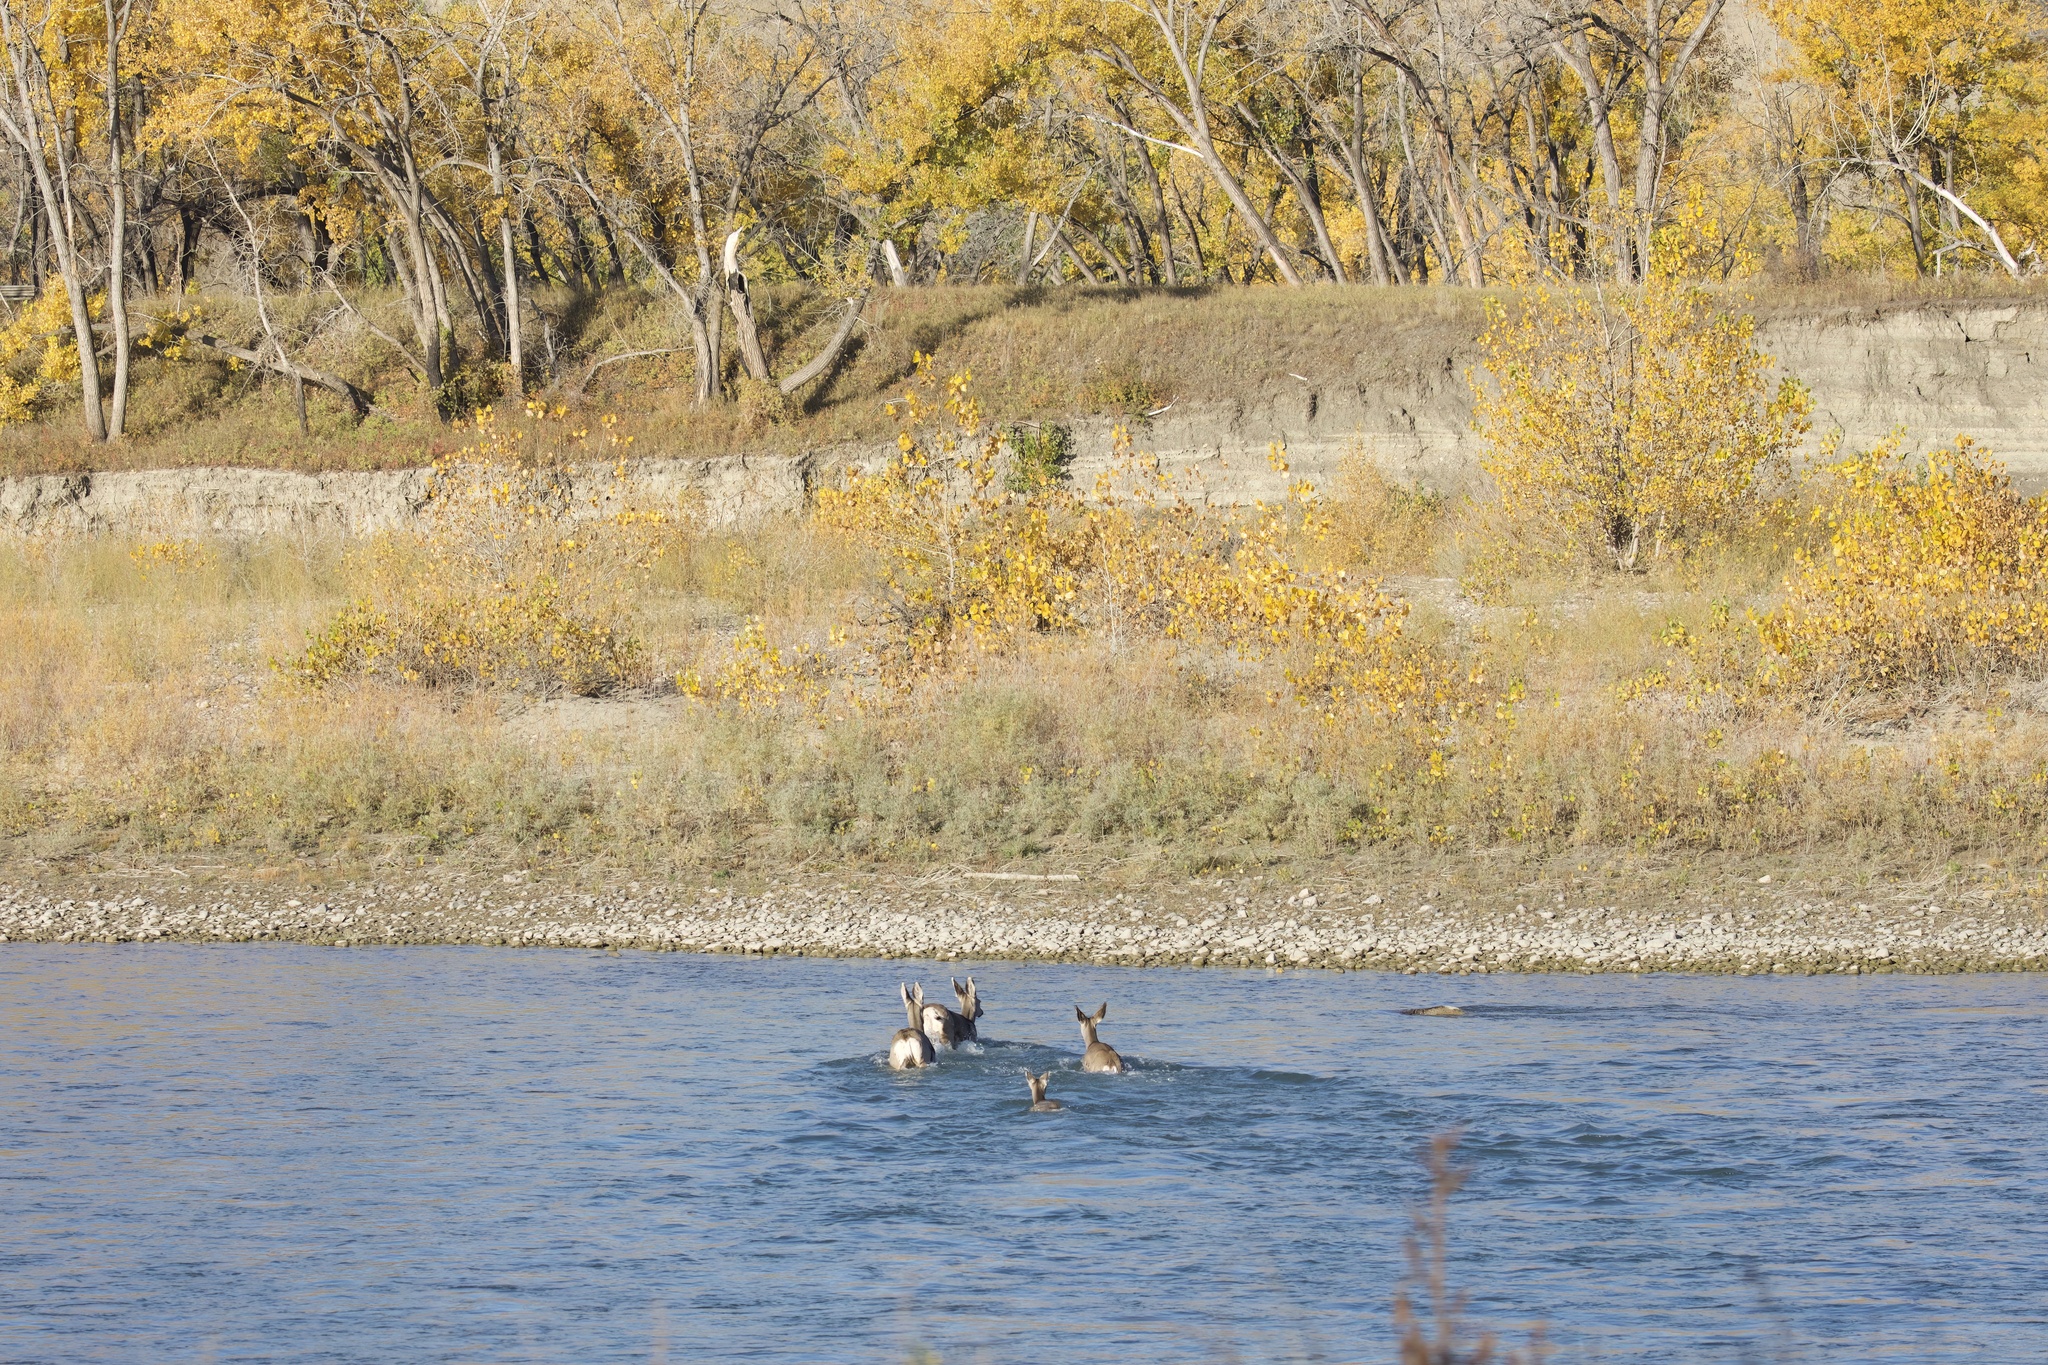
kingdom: Animalia
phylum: Chordata
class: Mammalia
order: Artiodactyla
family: Cervidae
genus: Odocoileus
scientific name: Odocoileus hemionus
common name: Mule deer
